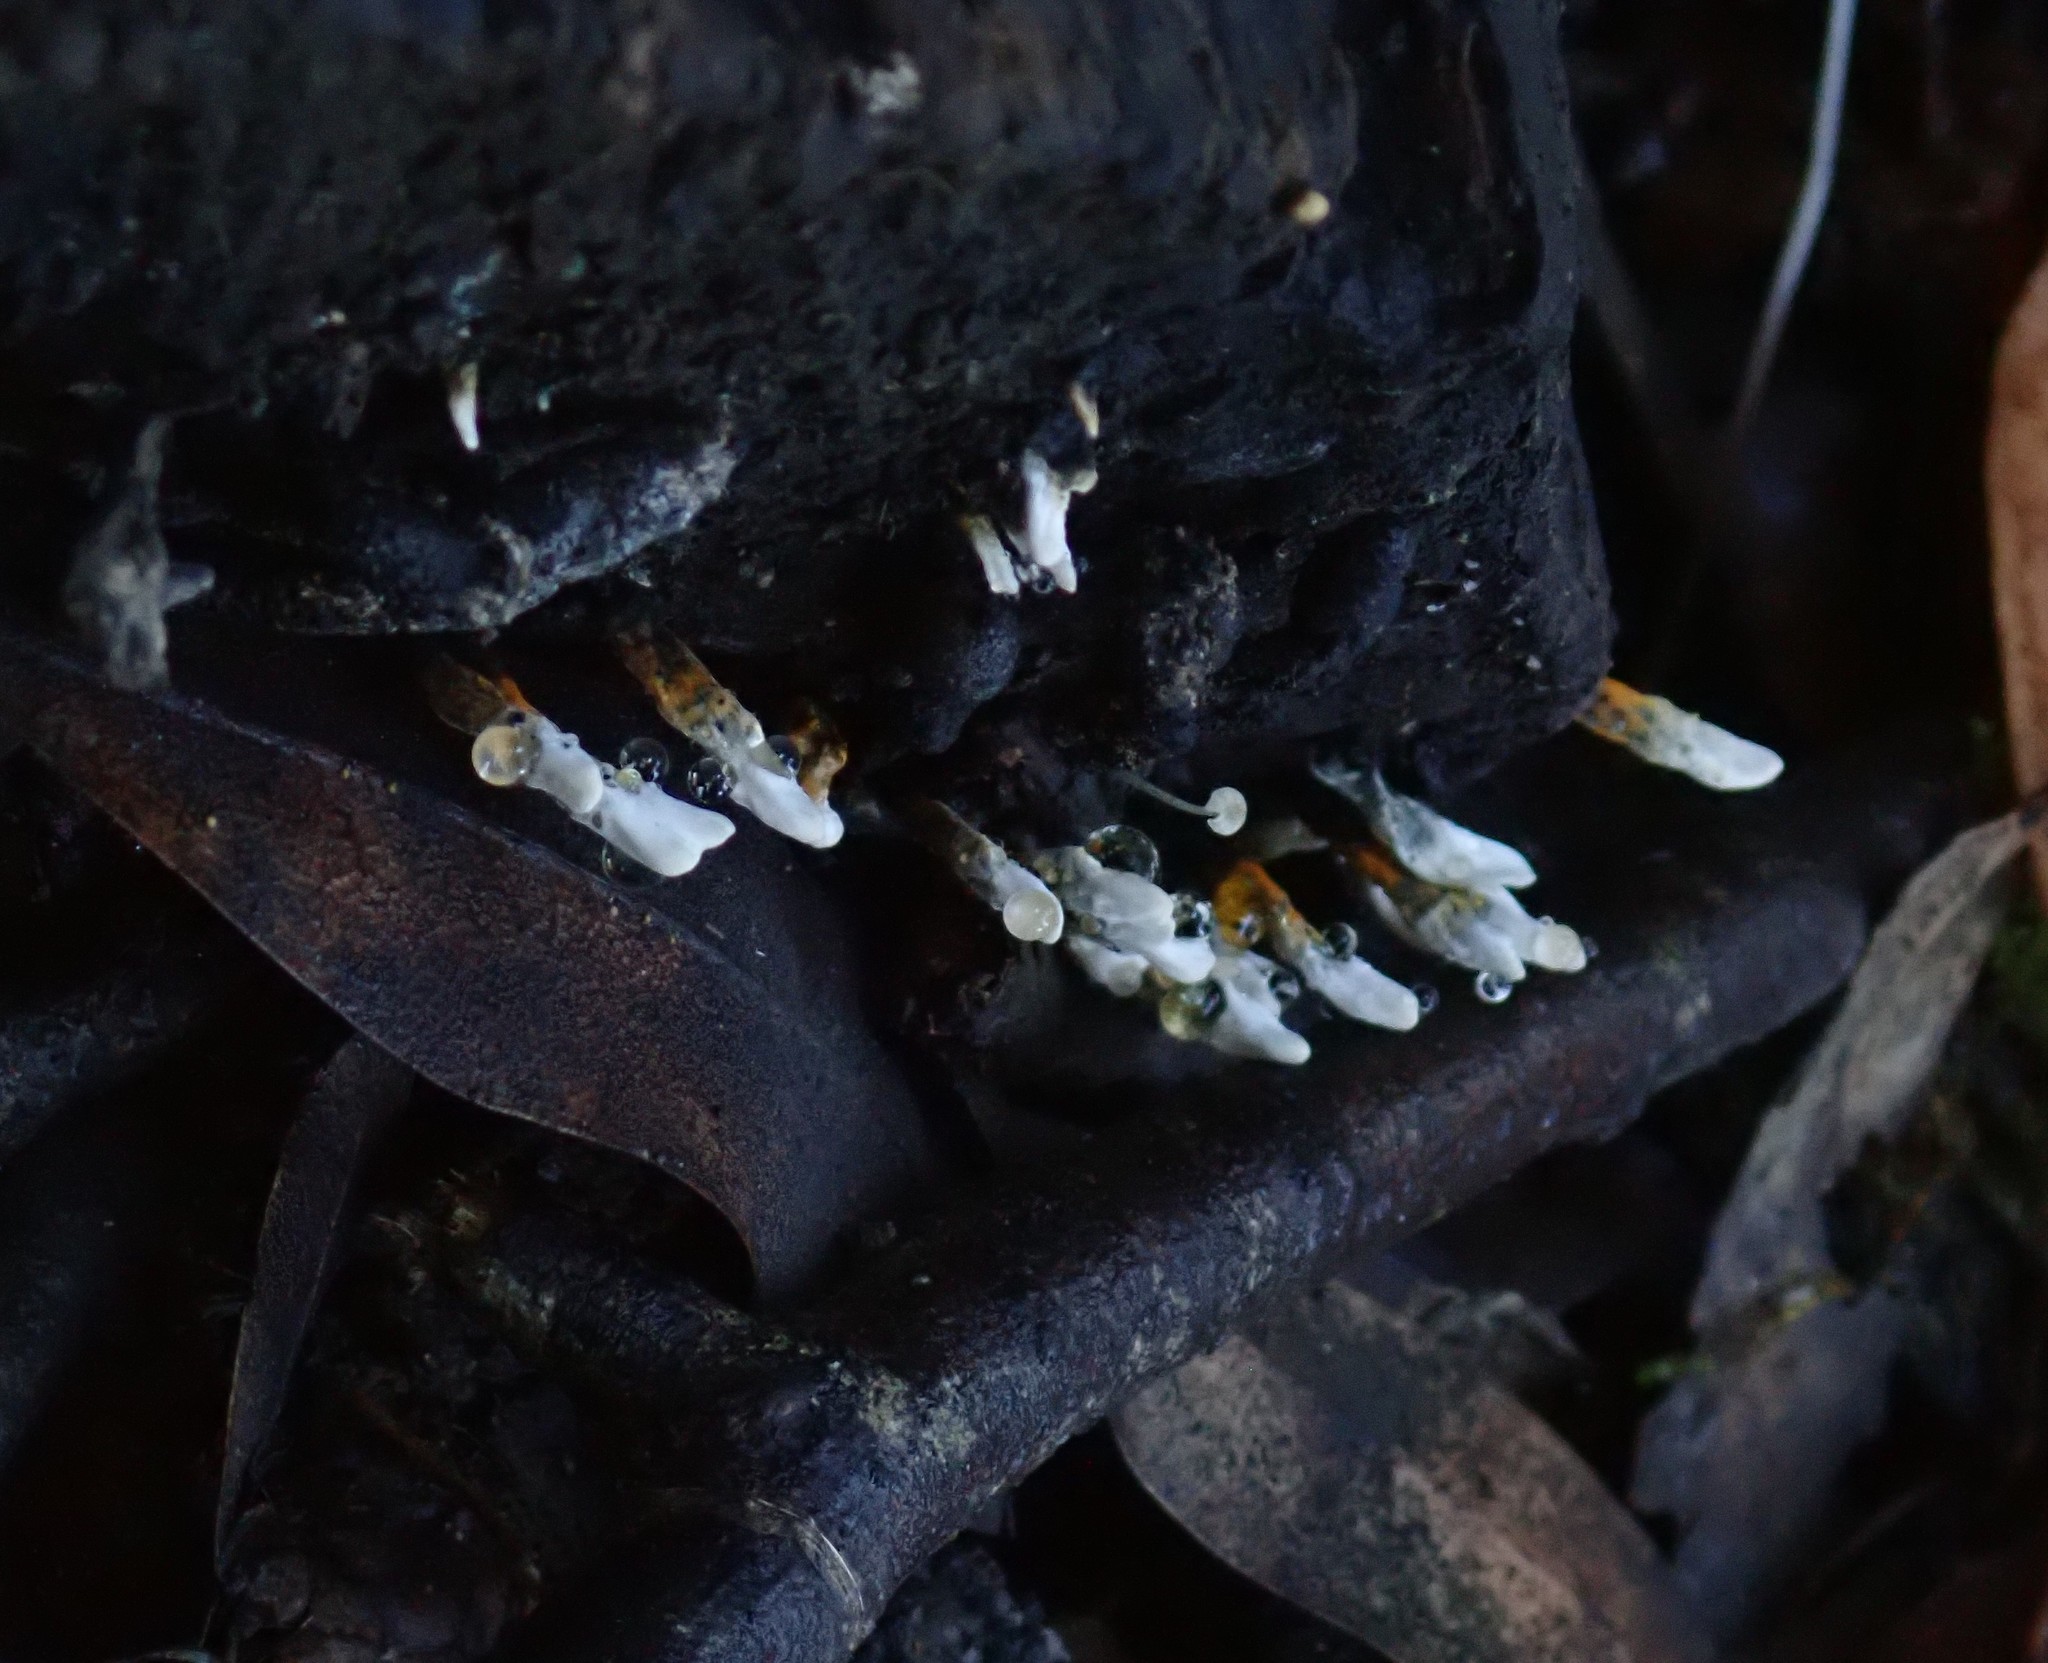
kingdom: Fungi
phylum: Ascomycota
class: Sordariomycetes
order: Xylariales
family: Xylariaceae
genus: Xylaria
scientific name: Xylaria hypoxylon
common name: Candle-snuff fungus
